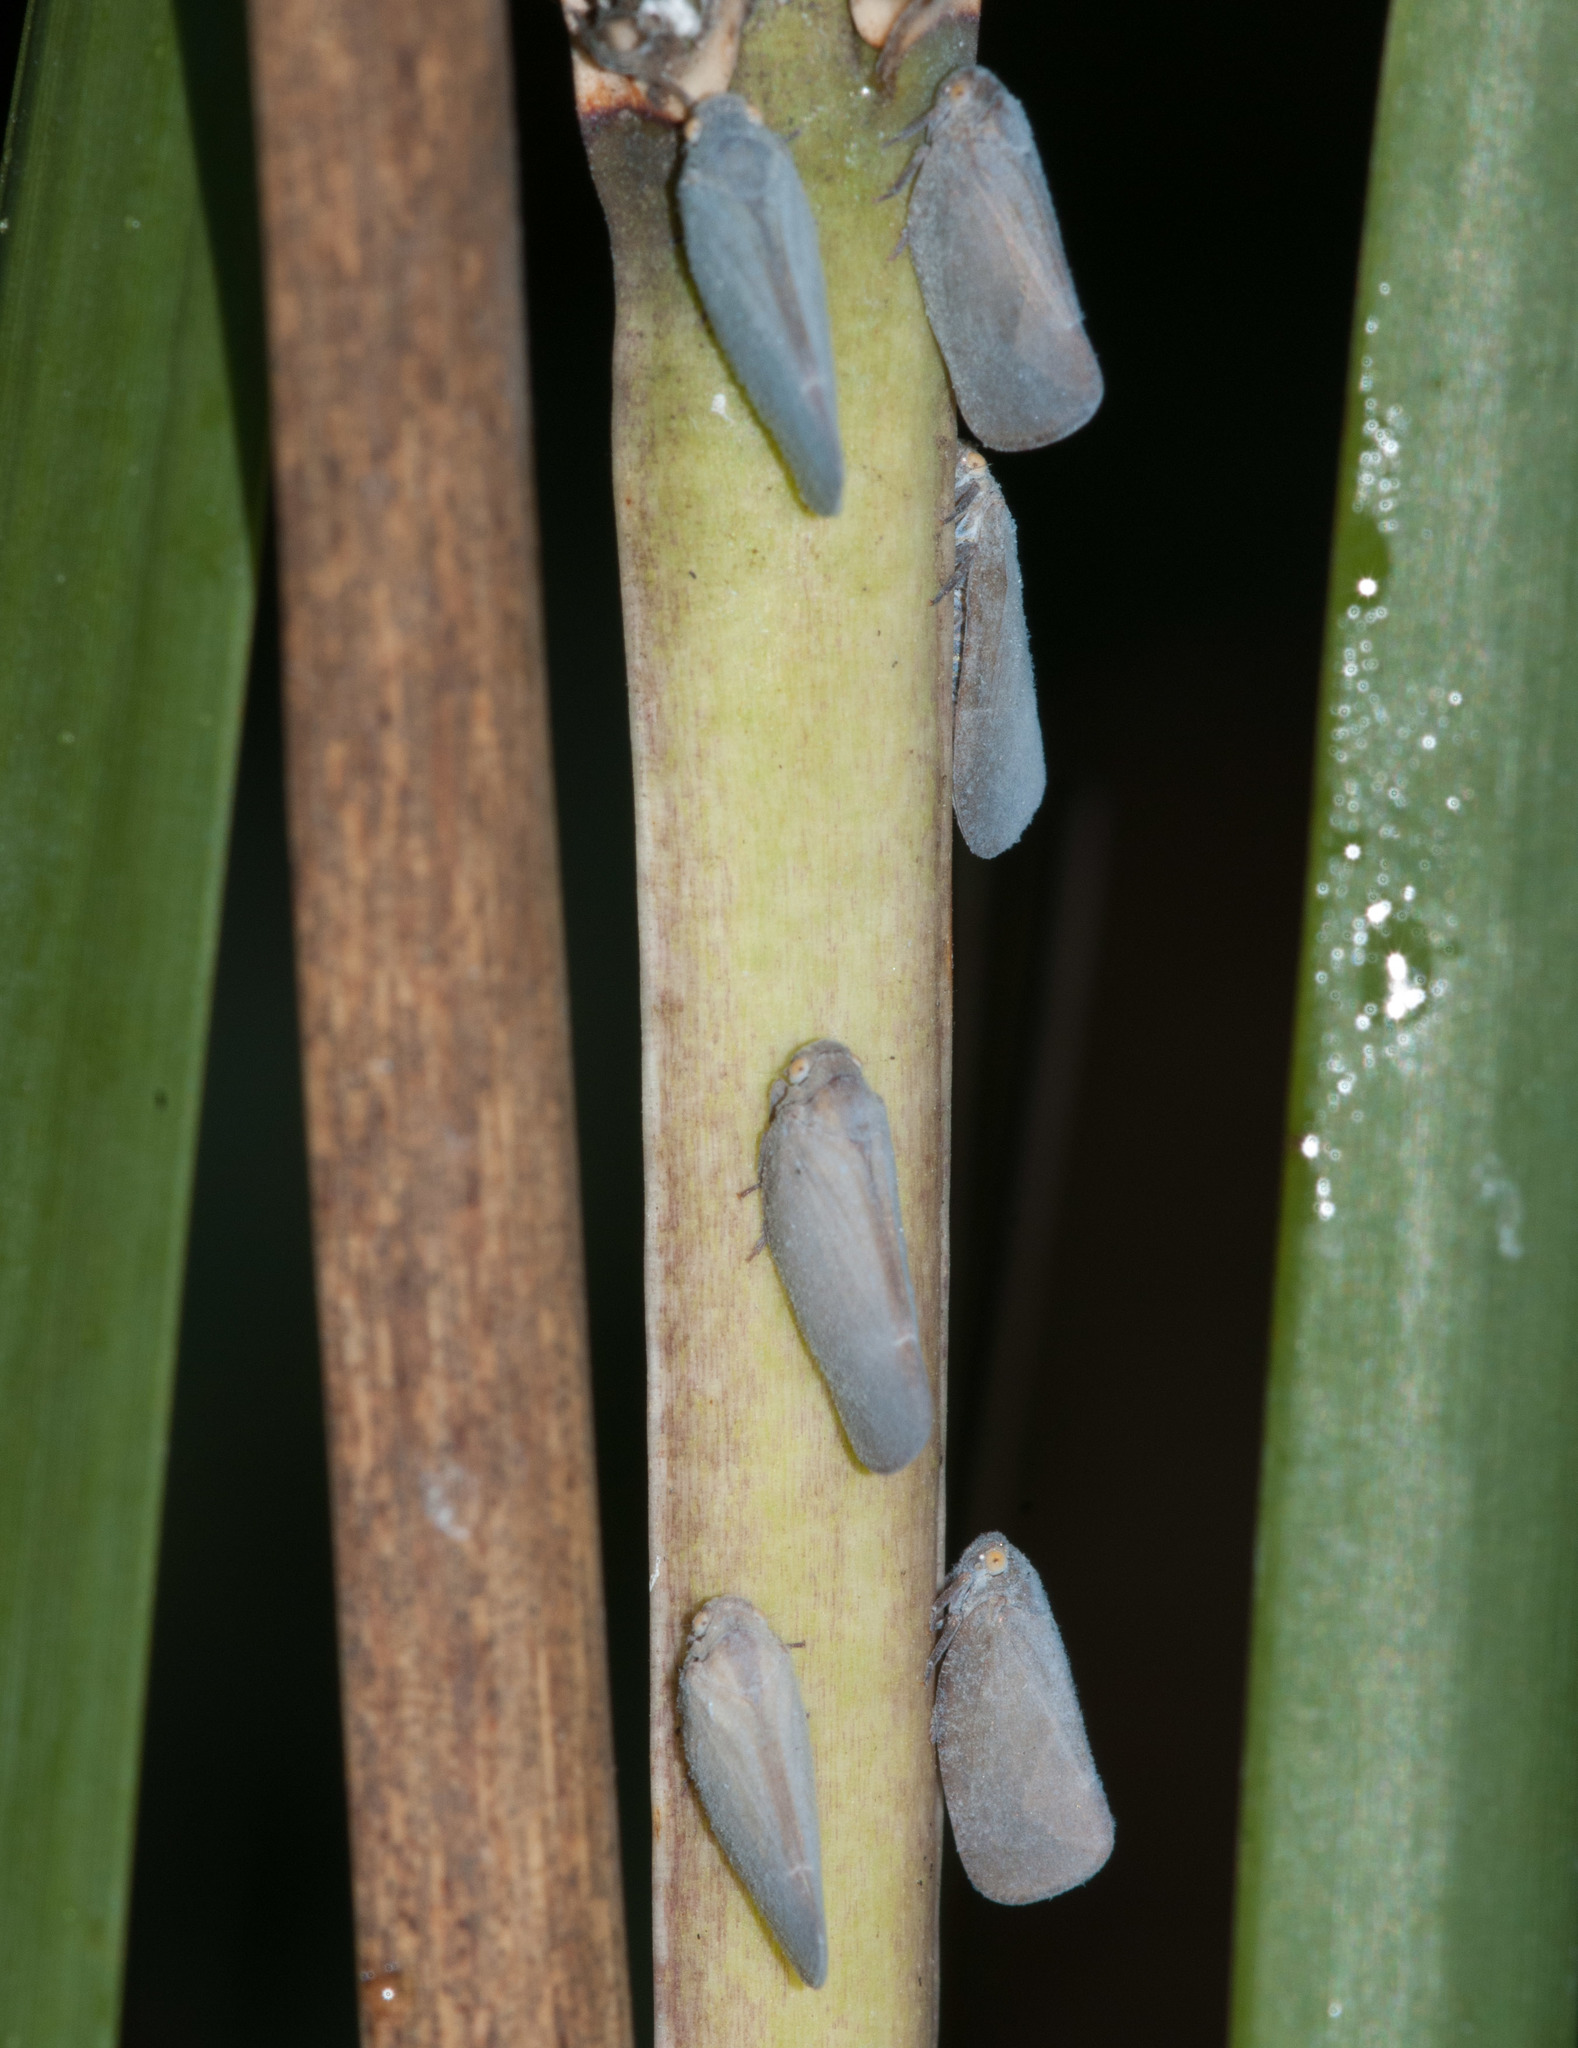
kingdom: Animalia
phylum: Arthropoda
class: Insecta
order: Hemiptera
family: Flatidae
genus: Anzora
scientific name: Anzora unicolor
